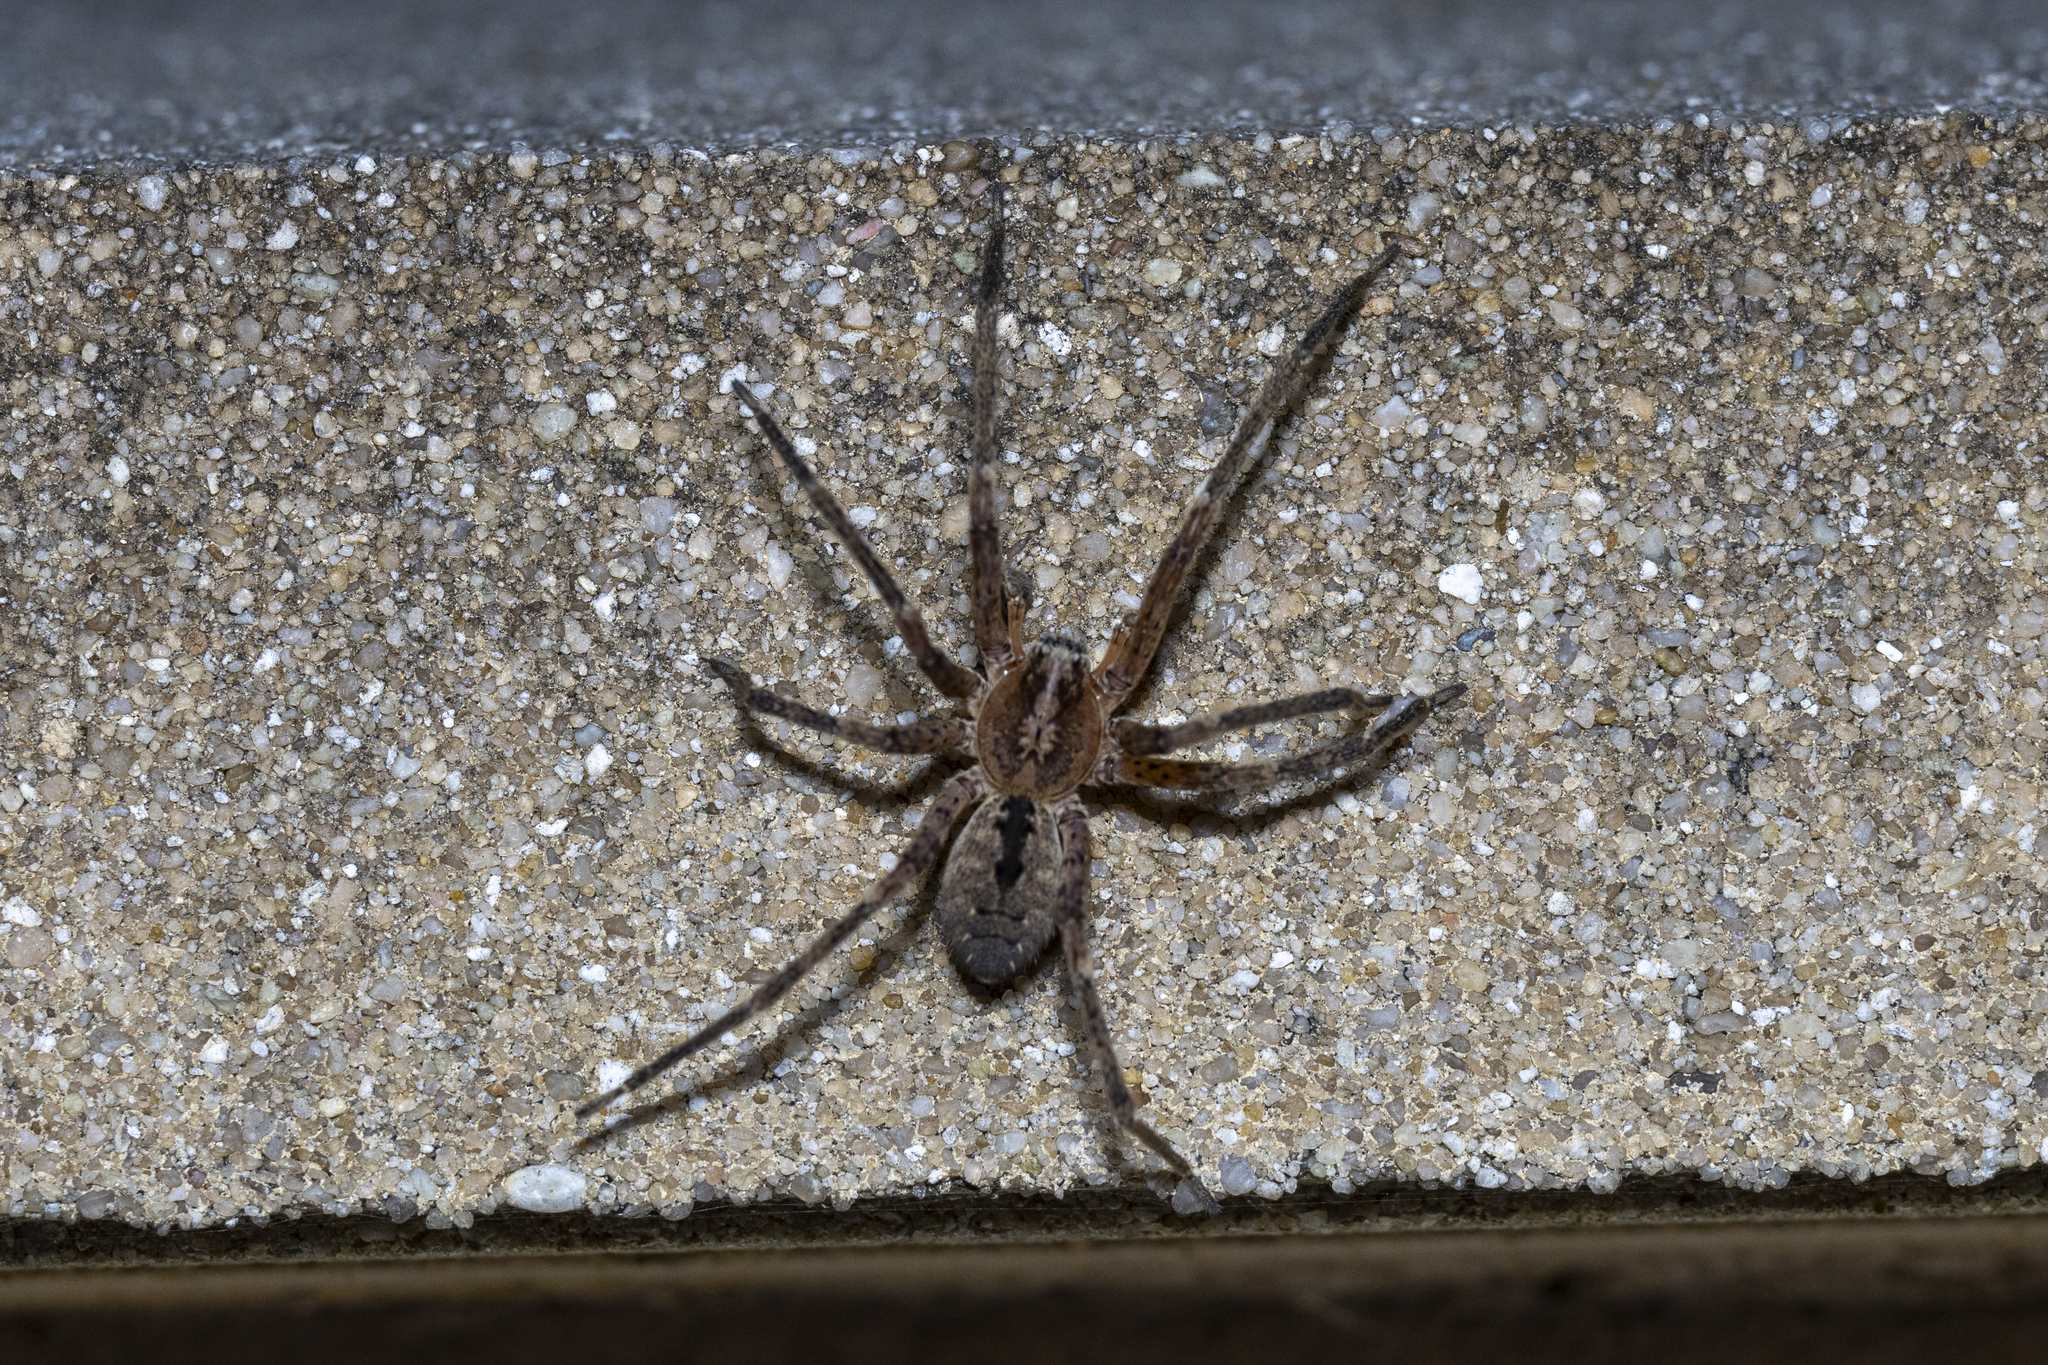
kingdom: Animalia
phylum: Arthropoda
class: Arachnida
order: Araneae
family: Zoropsidae
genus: Zoropsis
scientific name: Zoropsis spinimana
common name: Zoropsid spider
